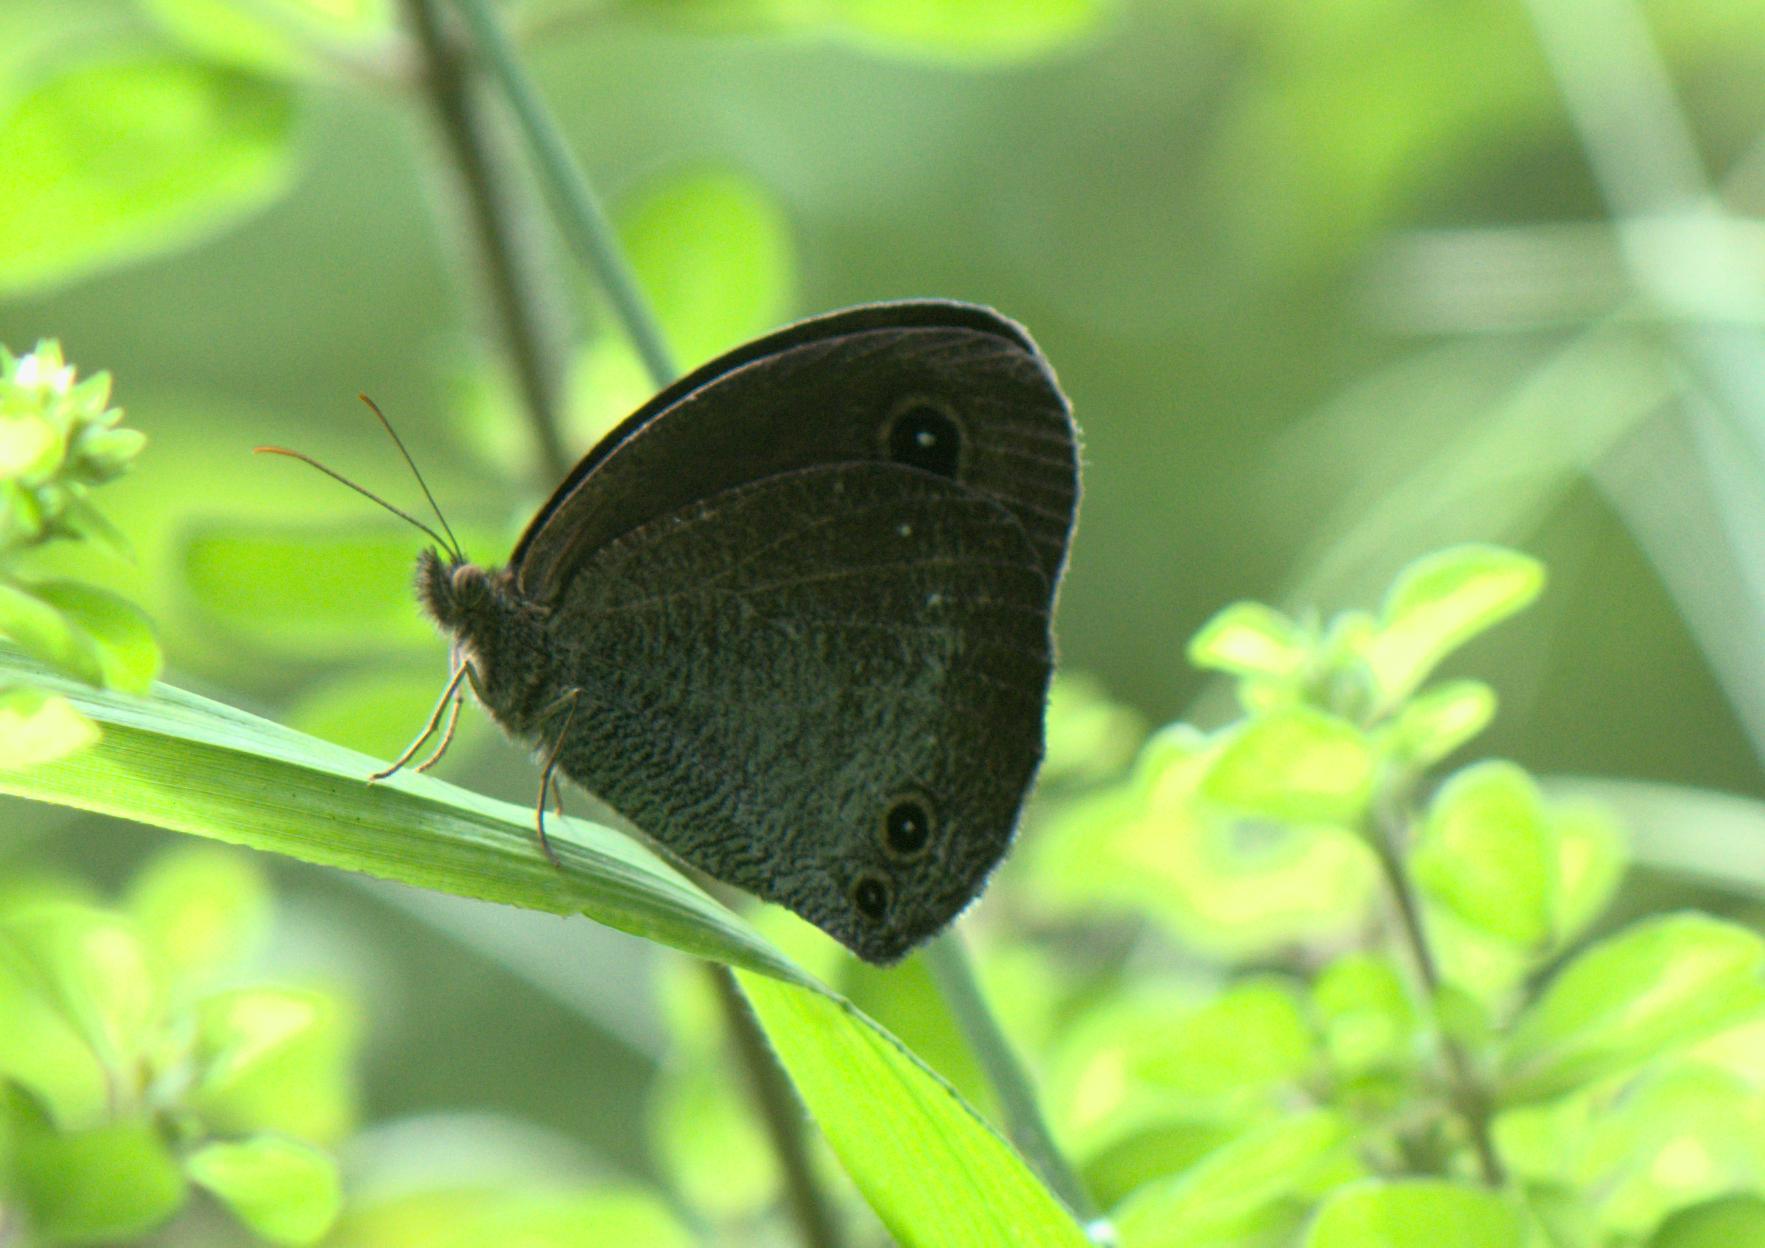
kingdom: Animalia
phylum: Arthropoda
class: Insecta
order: Lepidoptera
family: Nymphalidae
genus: Callerebia
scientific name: Callerebia scanda
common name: Pallid argus
